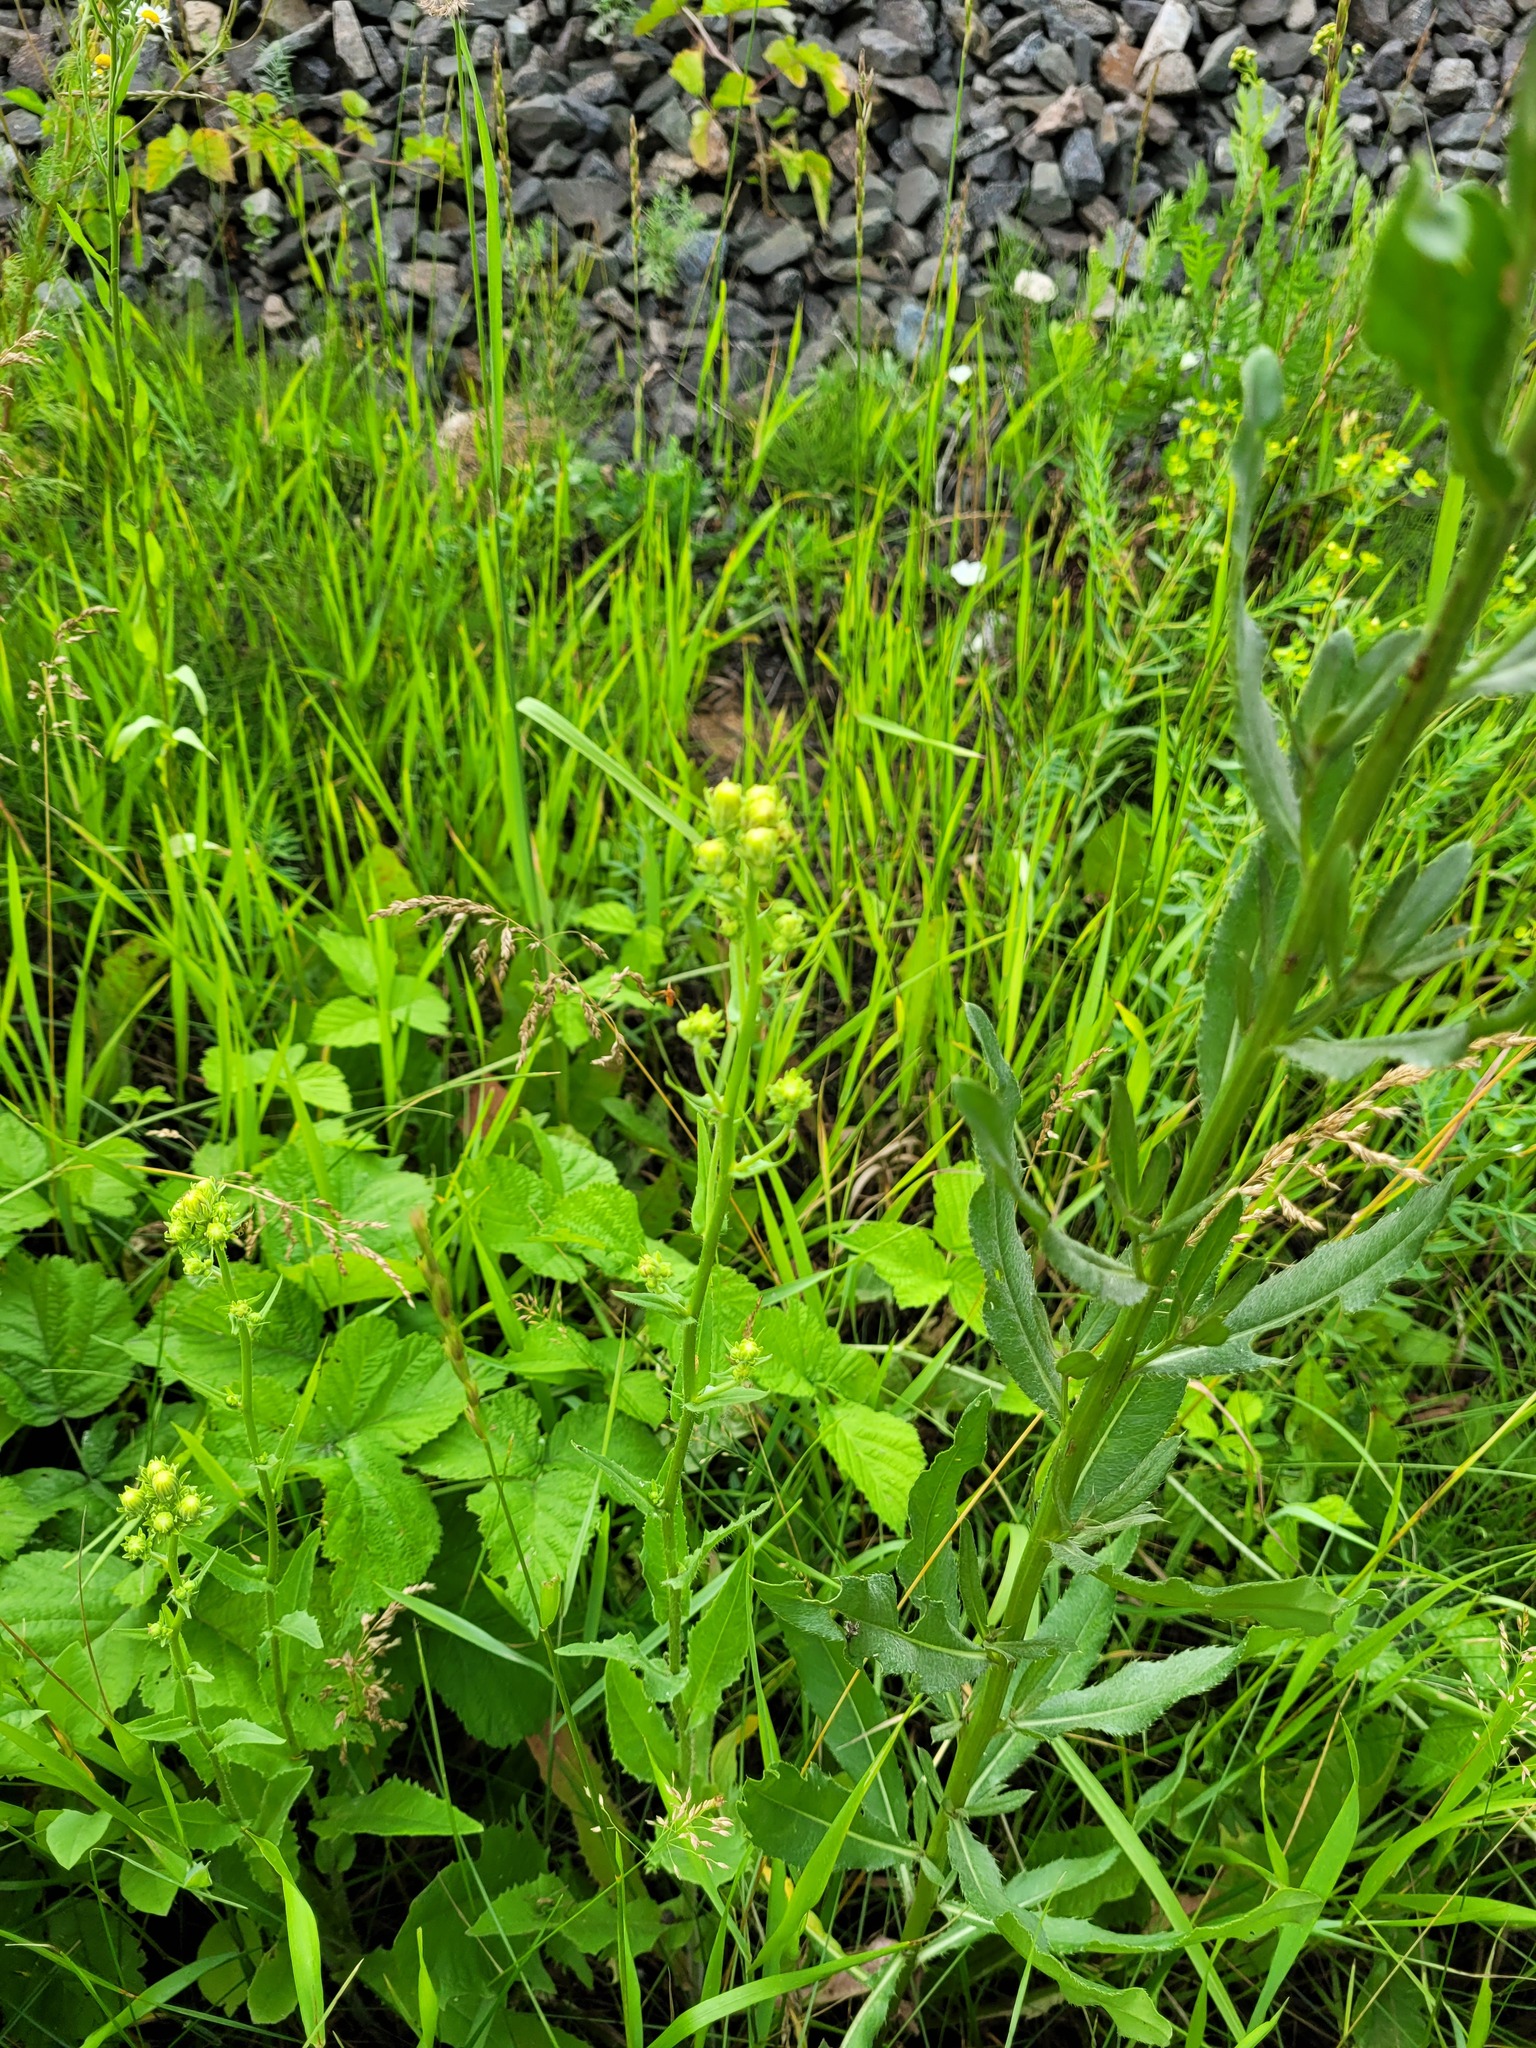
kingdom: Plantae
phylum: Tracheophyta
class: Magnoliopsida
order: Asterales
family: Asteraceae
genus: Picris
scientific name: Picris hieracioides
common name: Hawkweed oxtongue
